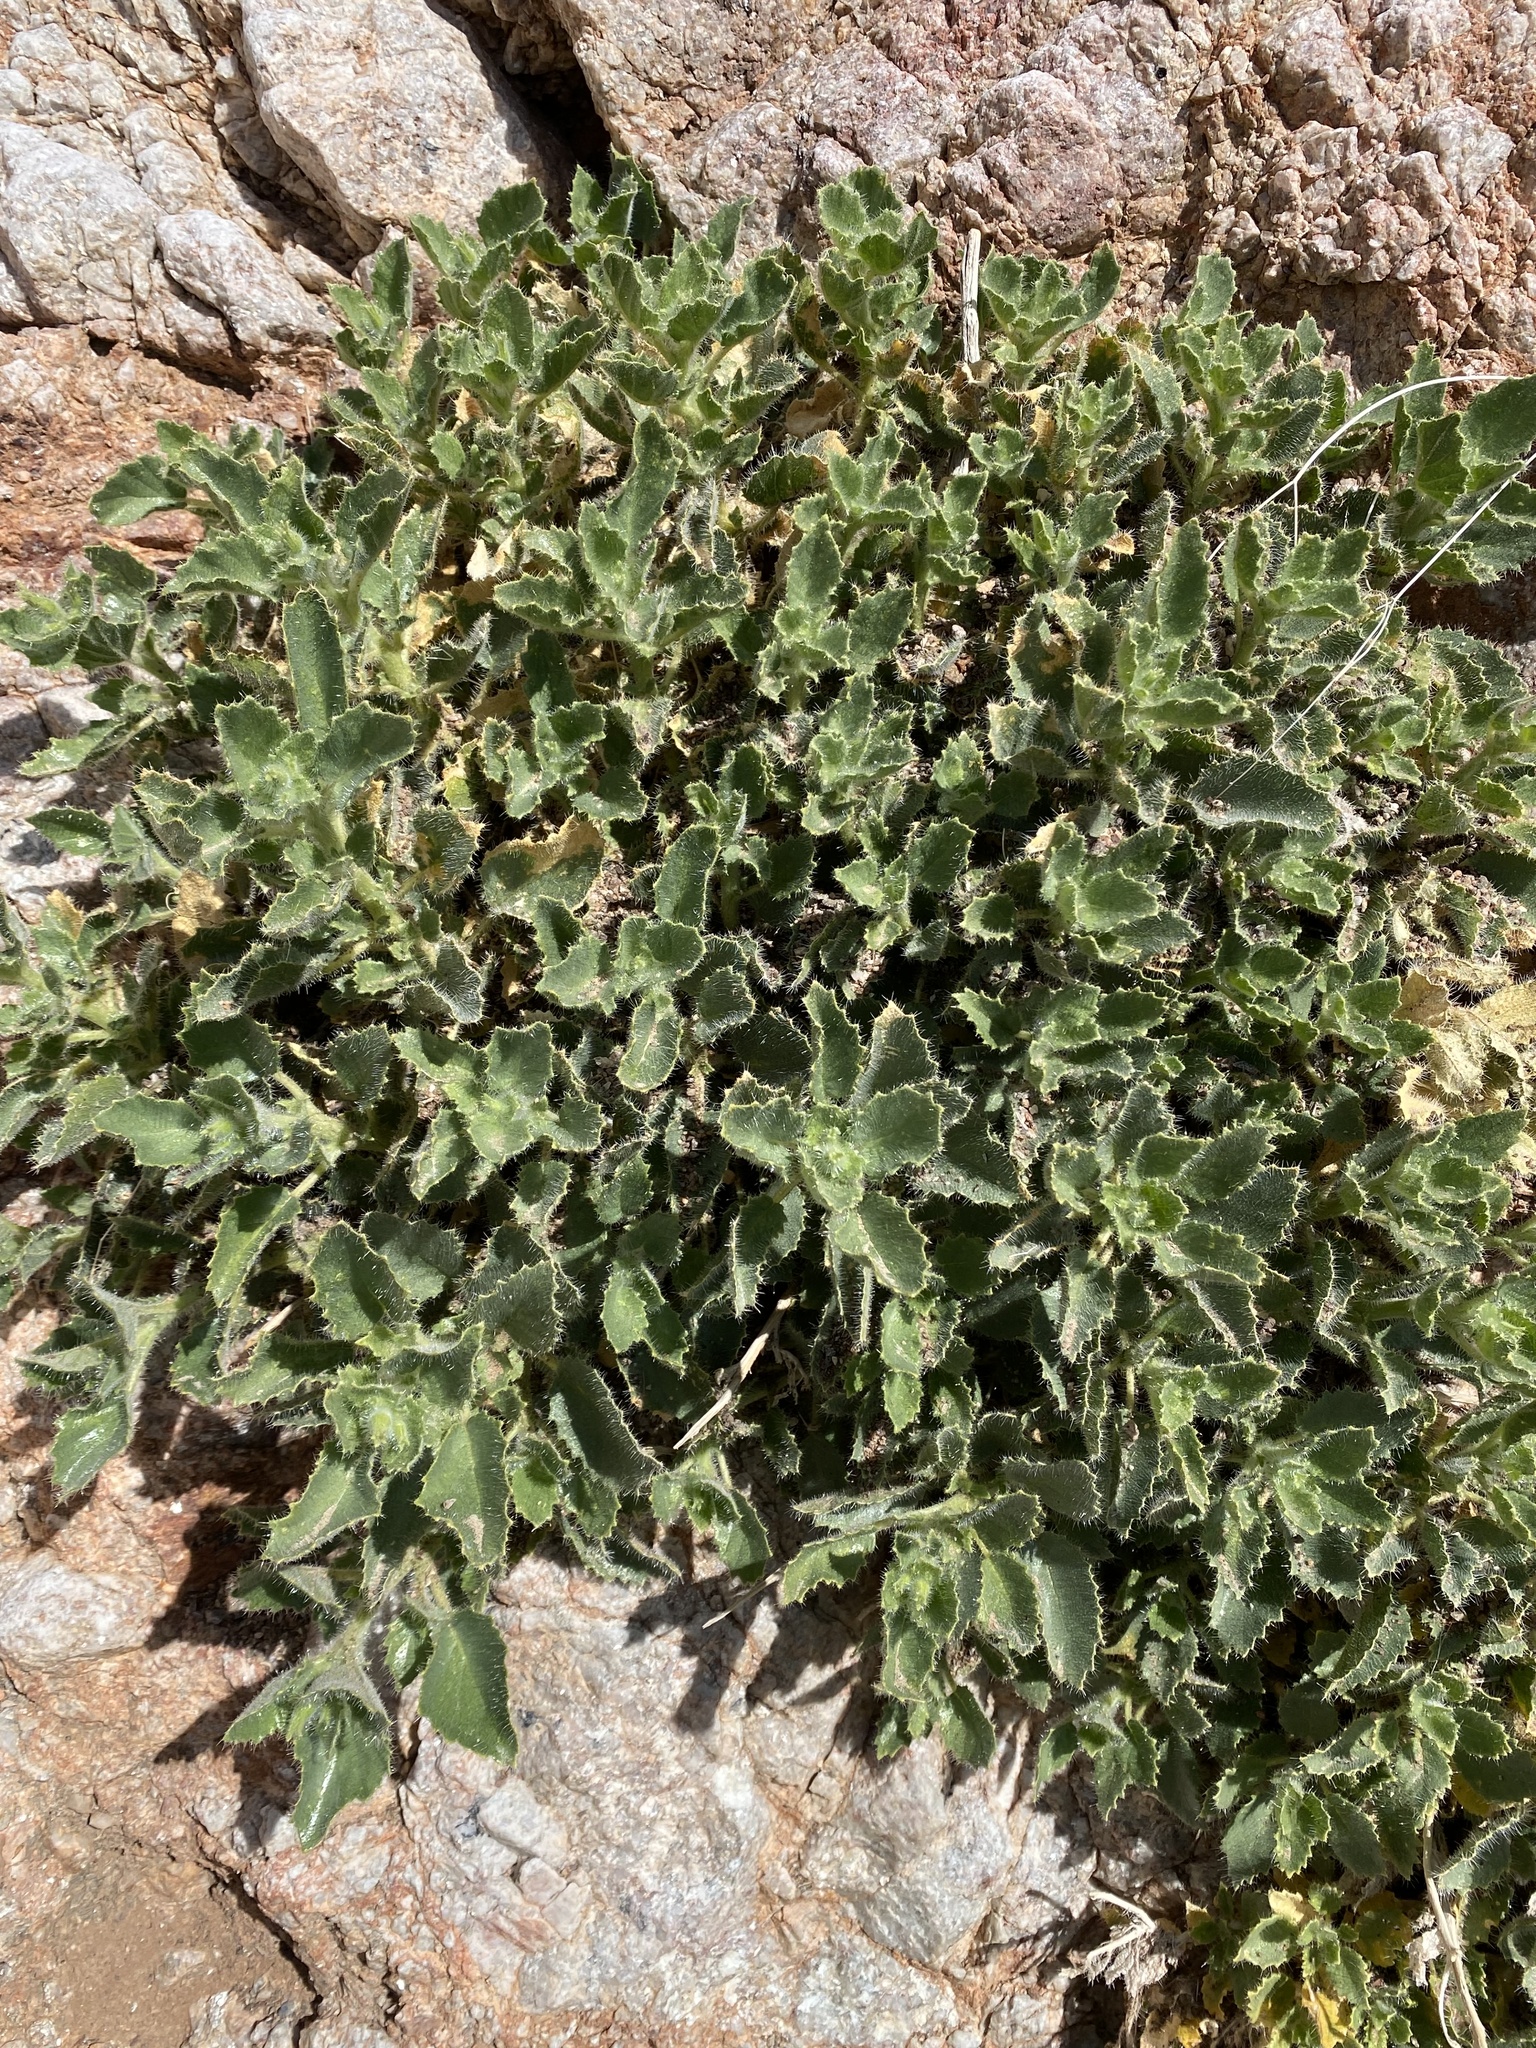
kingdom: Plantae
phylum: Tracheophyta
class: Magnoliopsida
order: Cornales
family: Loasaceae
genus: Eucnide
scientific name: Eucnide urens
